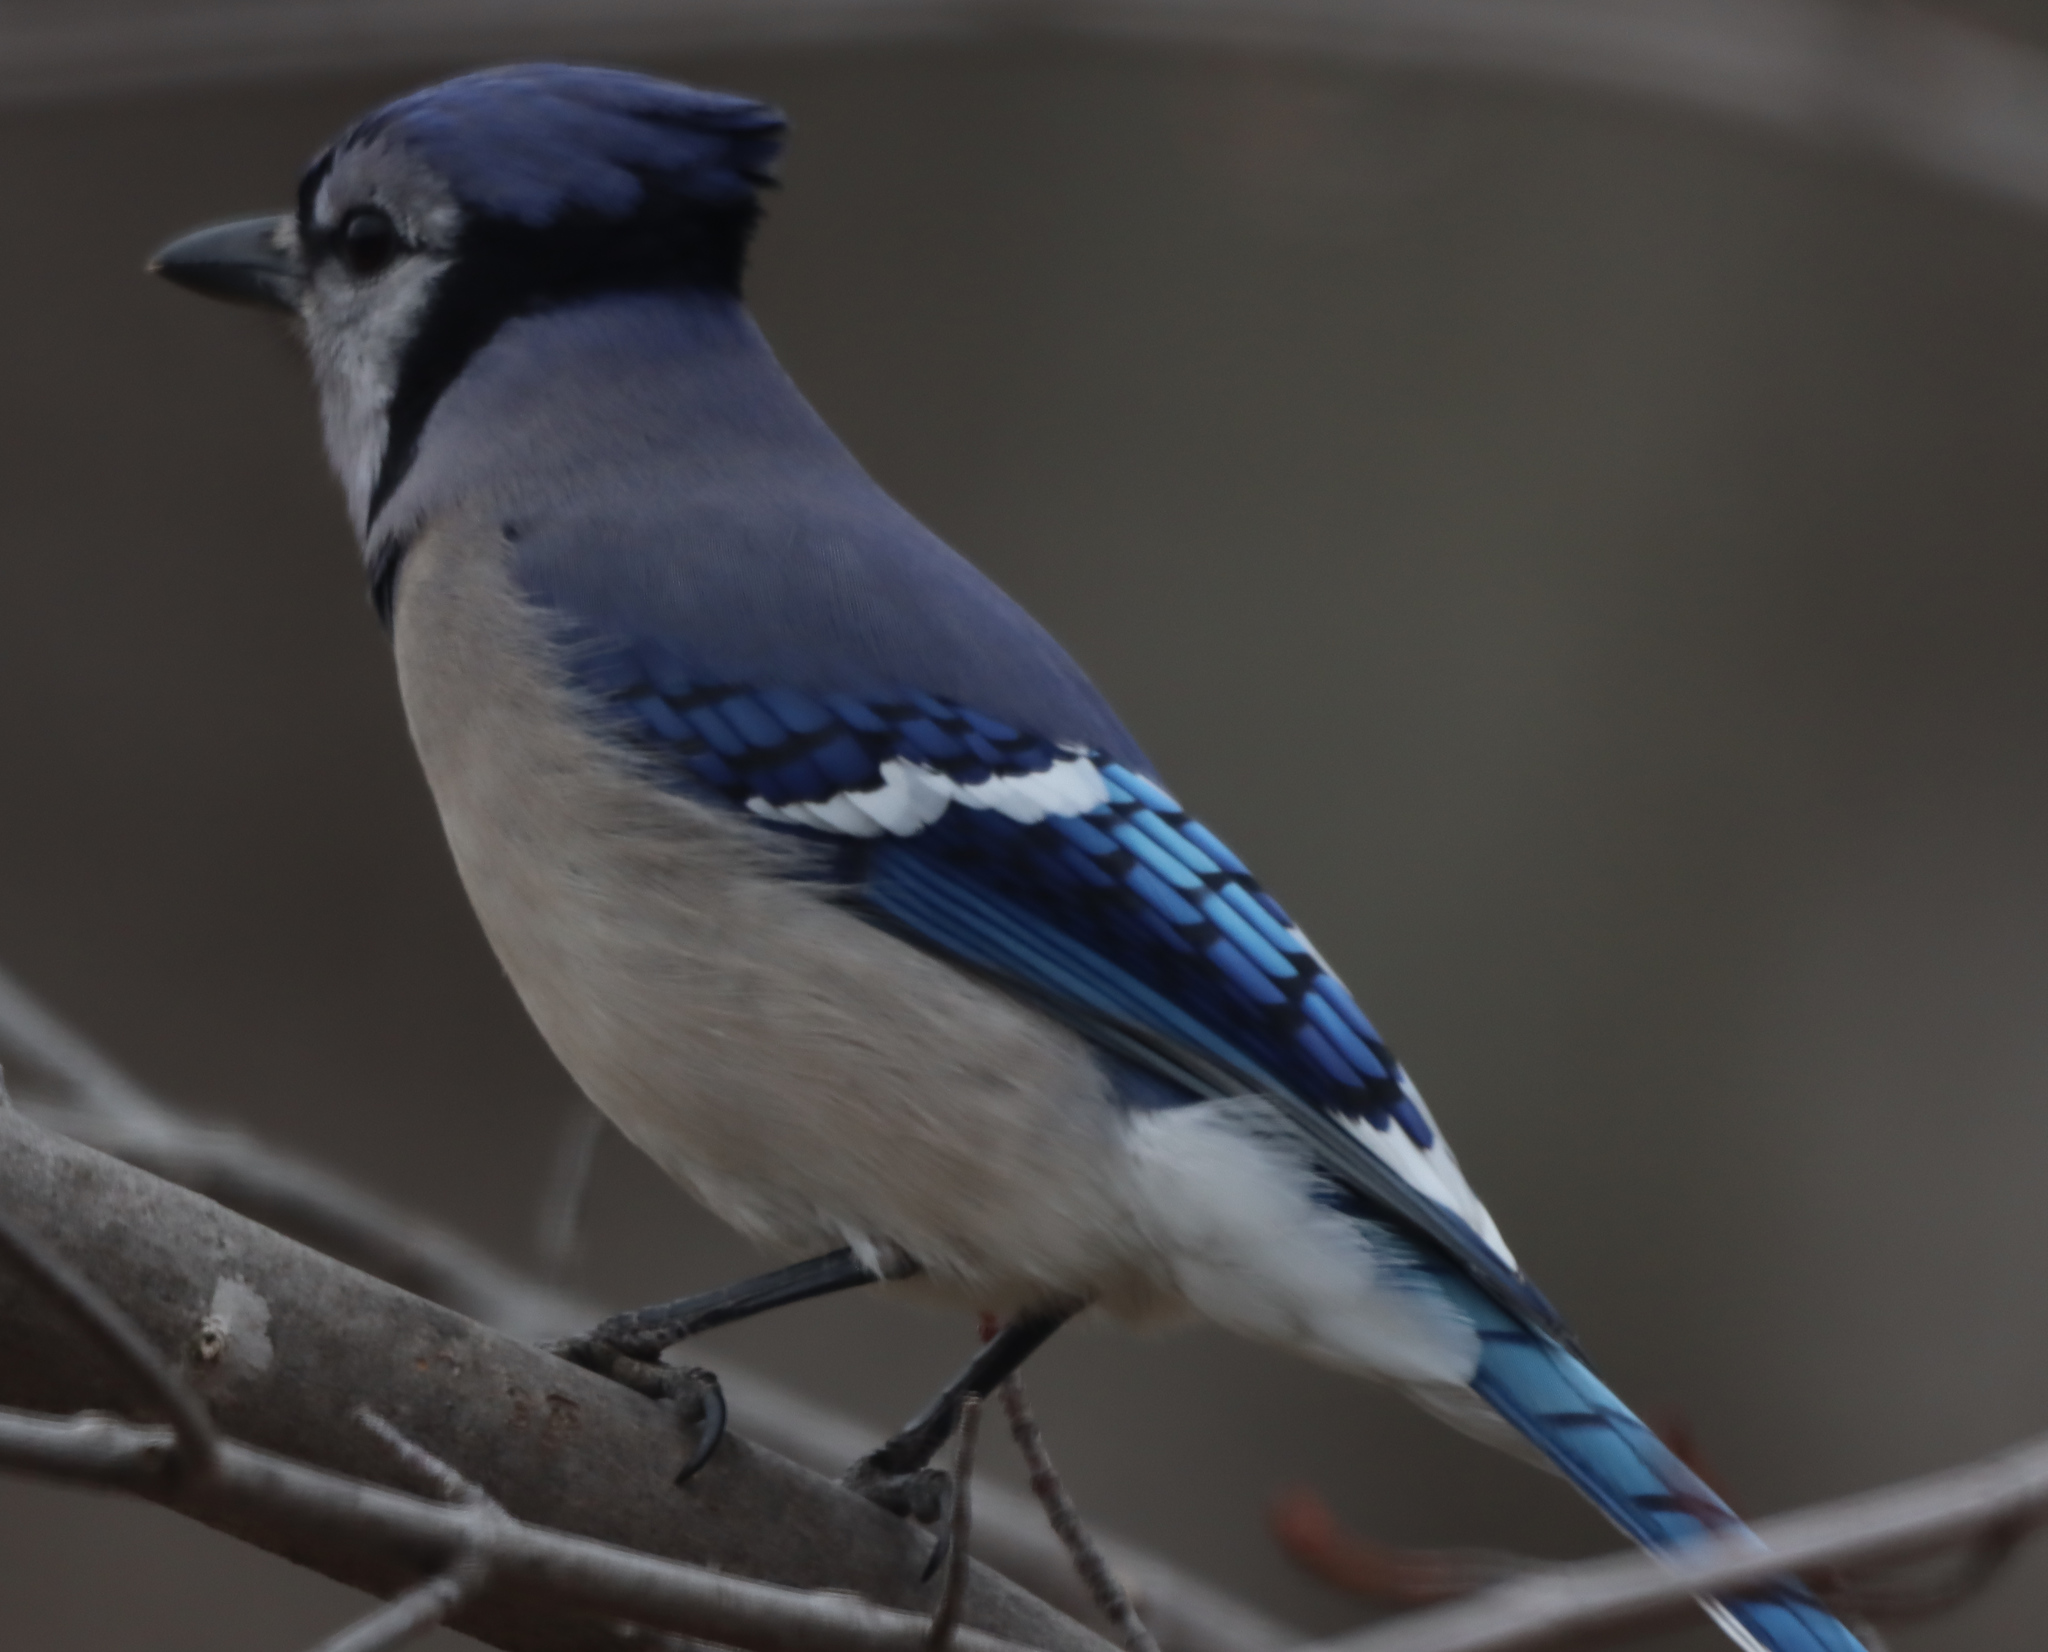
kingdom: Animalia
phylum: Chordata
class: Aves
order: Passeriformes
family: Corvidae
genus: Cyanocitta
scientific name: Cyanocitta cristata
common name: Blue jay
